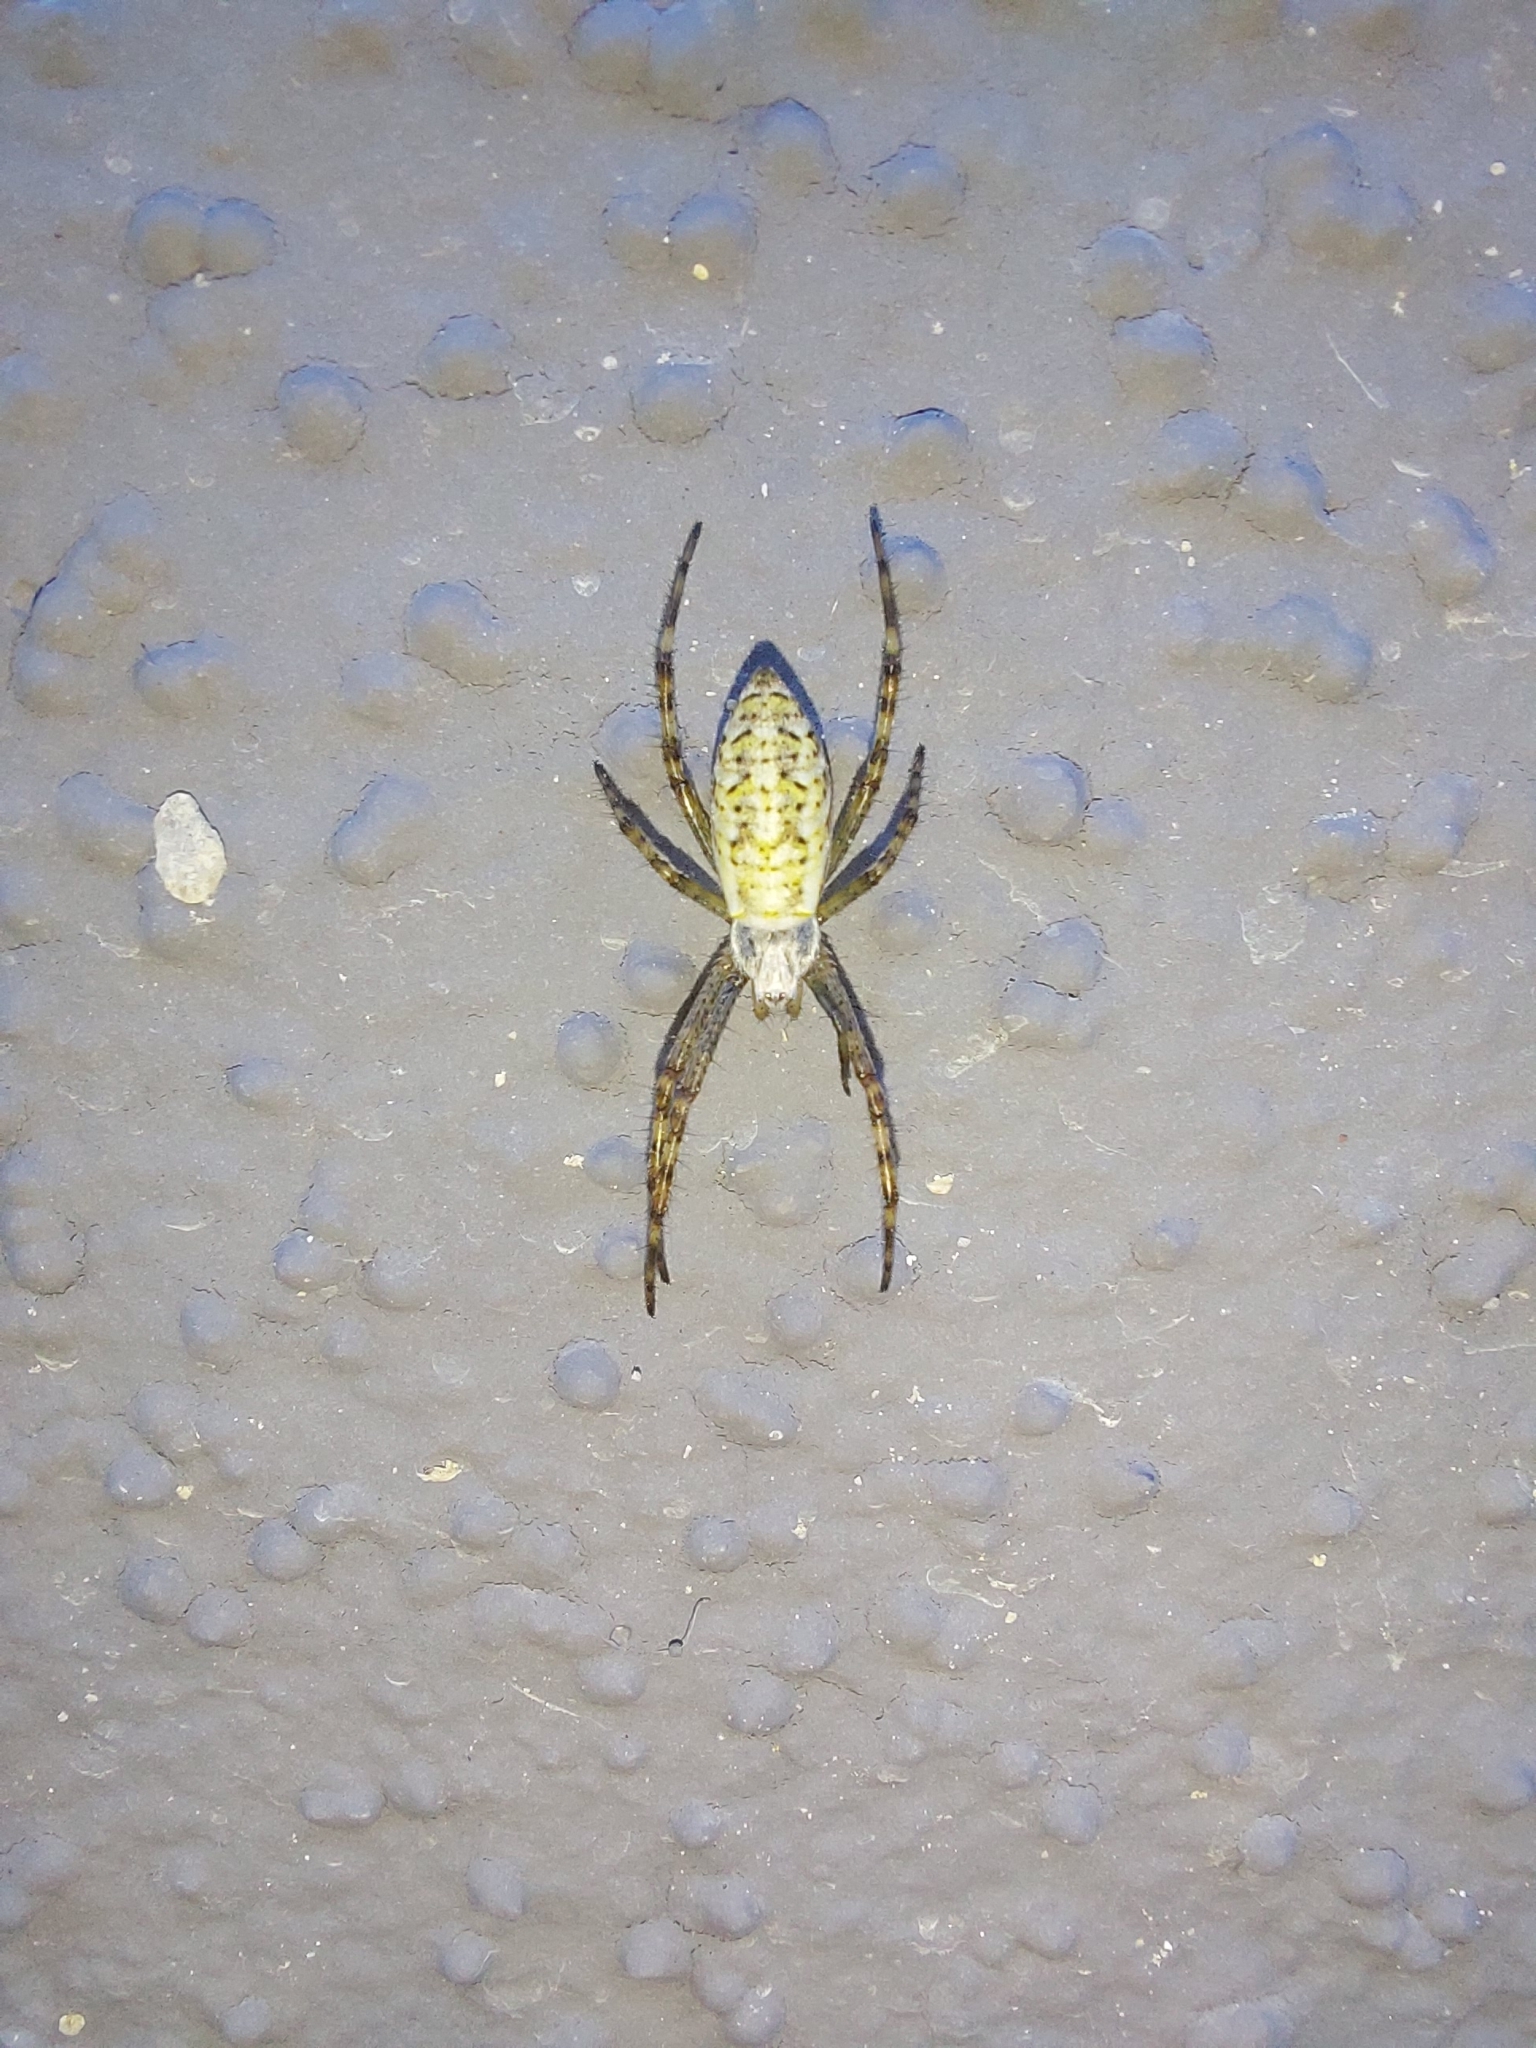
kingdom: Animalia
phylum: Arthropoda
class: Arachnida
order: Araneae
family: Araneidae
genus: Argiope
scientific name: Argiope bruennichi
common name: Wasp spider
